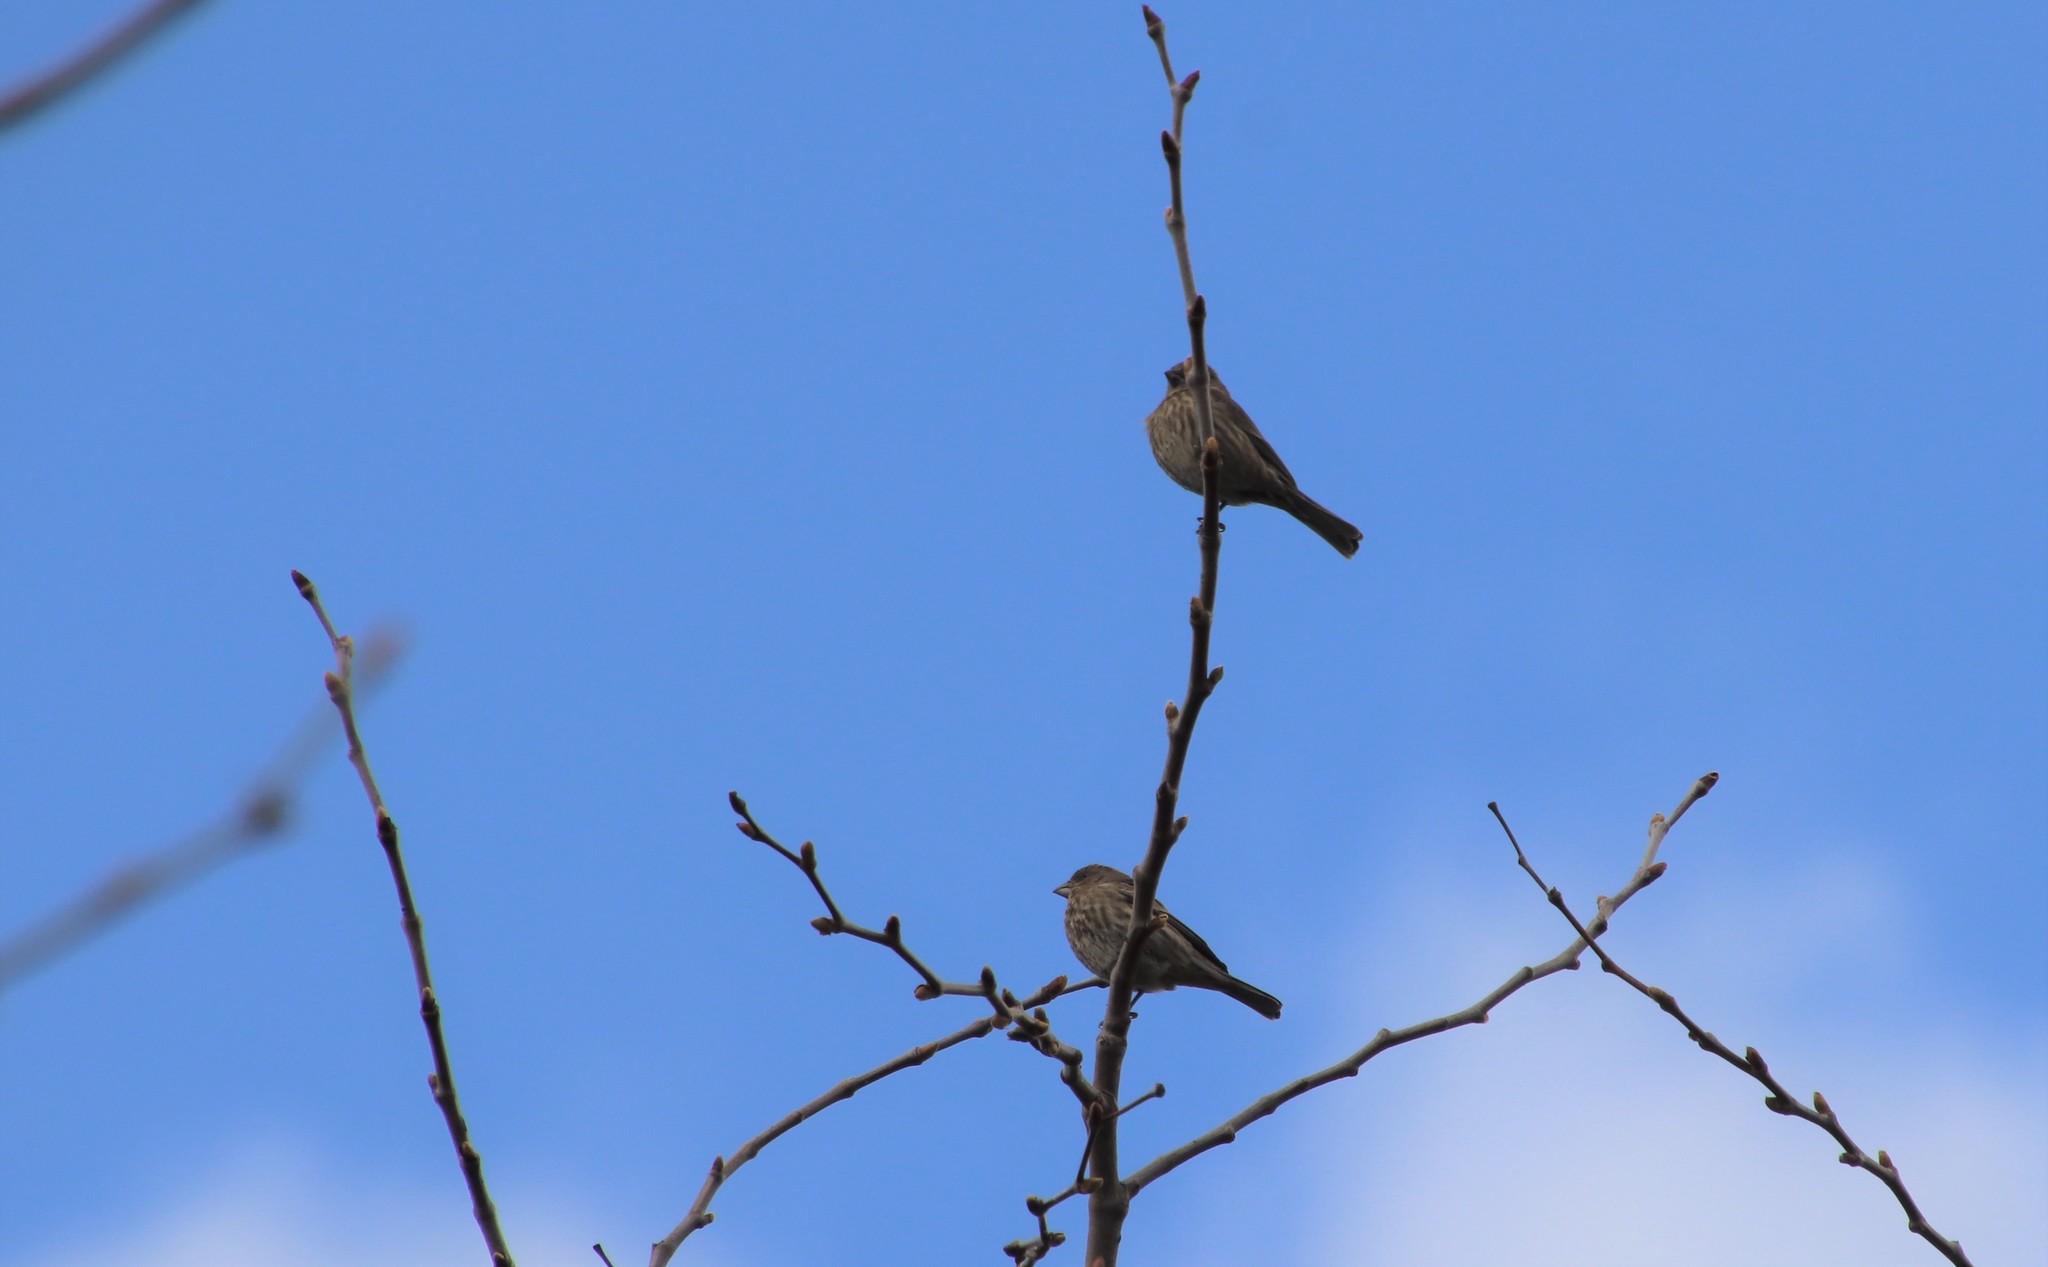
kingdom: Animalia
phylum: Chordata
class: Aves
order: Passeriformes
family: Fringillidae
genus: Haemorhous
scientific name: Haemorhous mexicanus
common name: House finch
